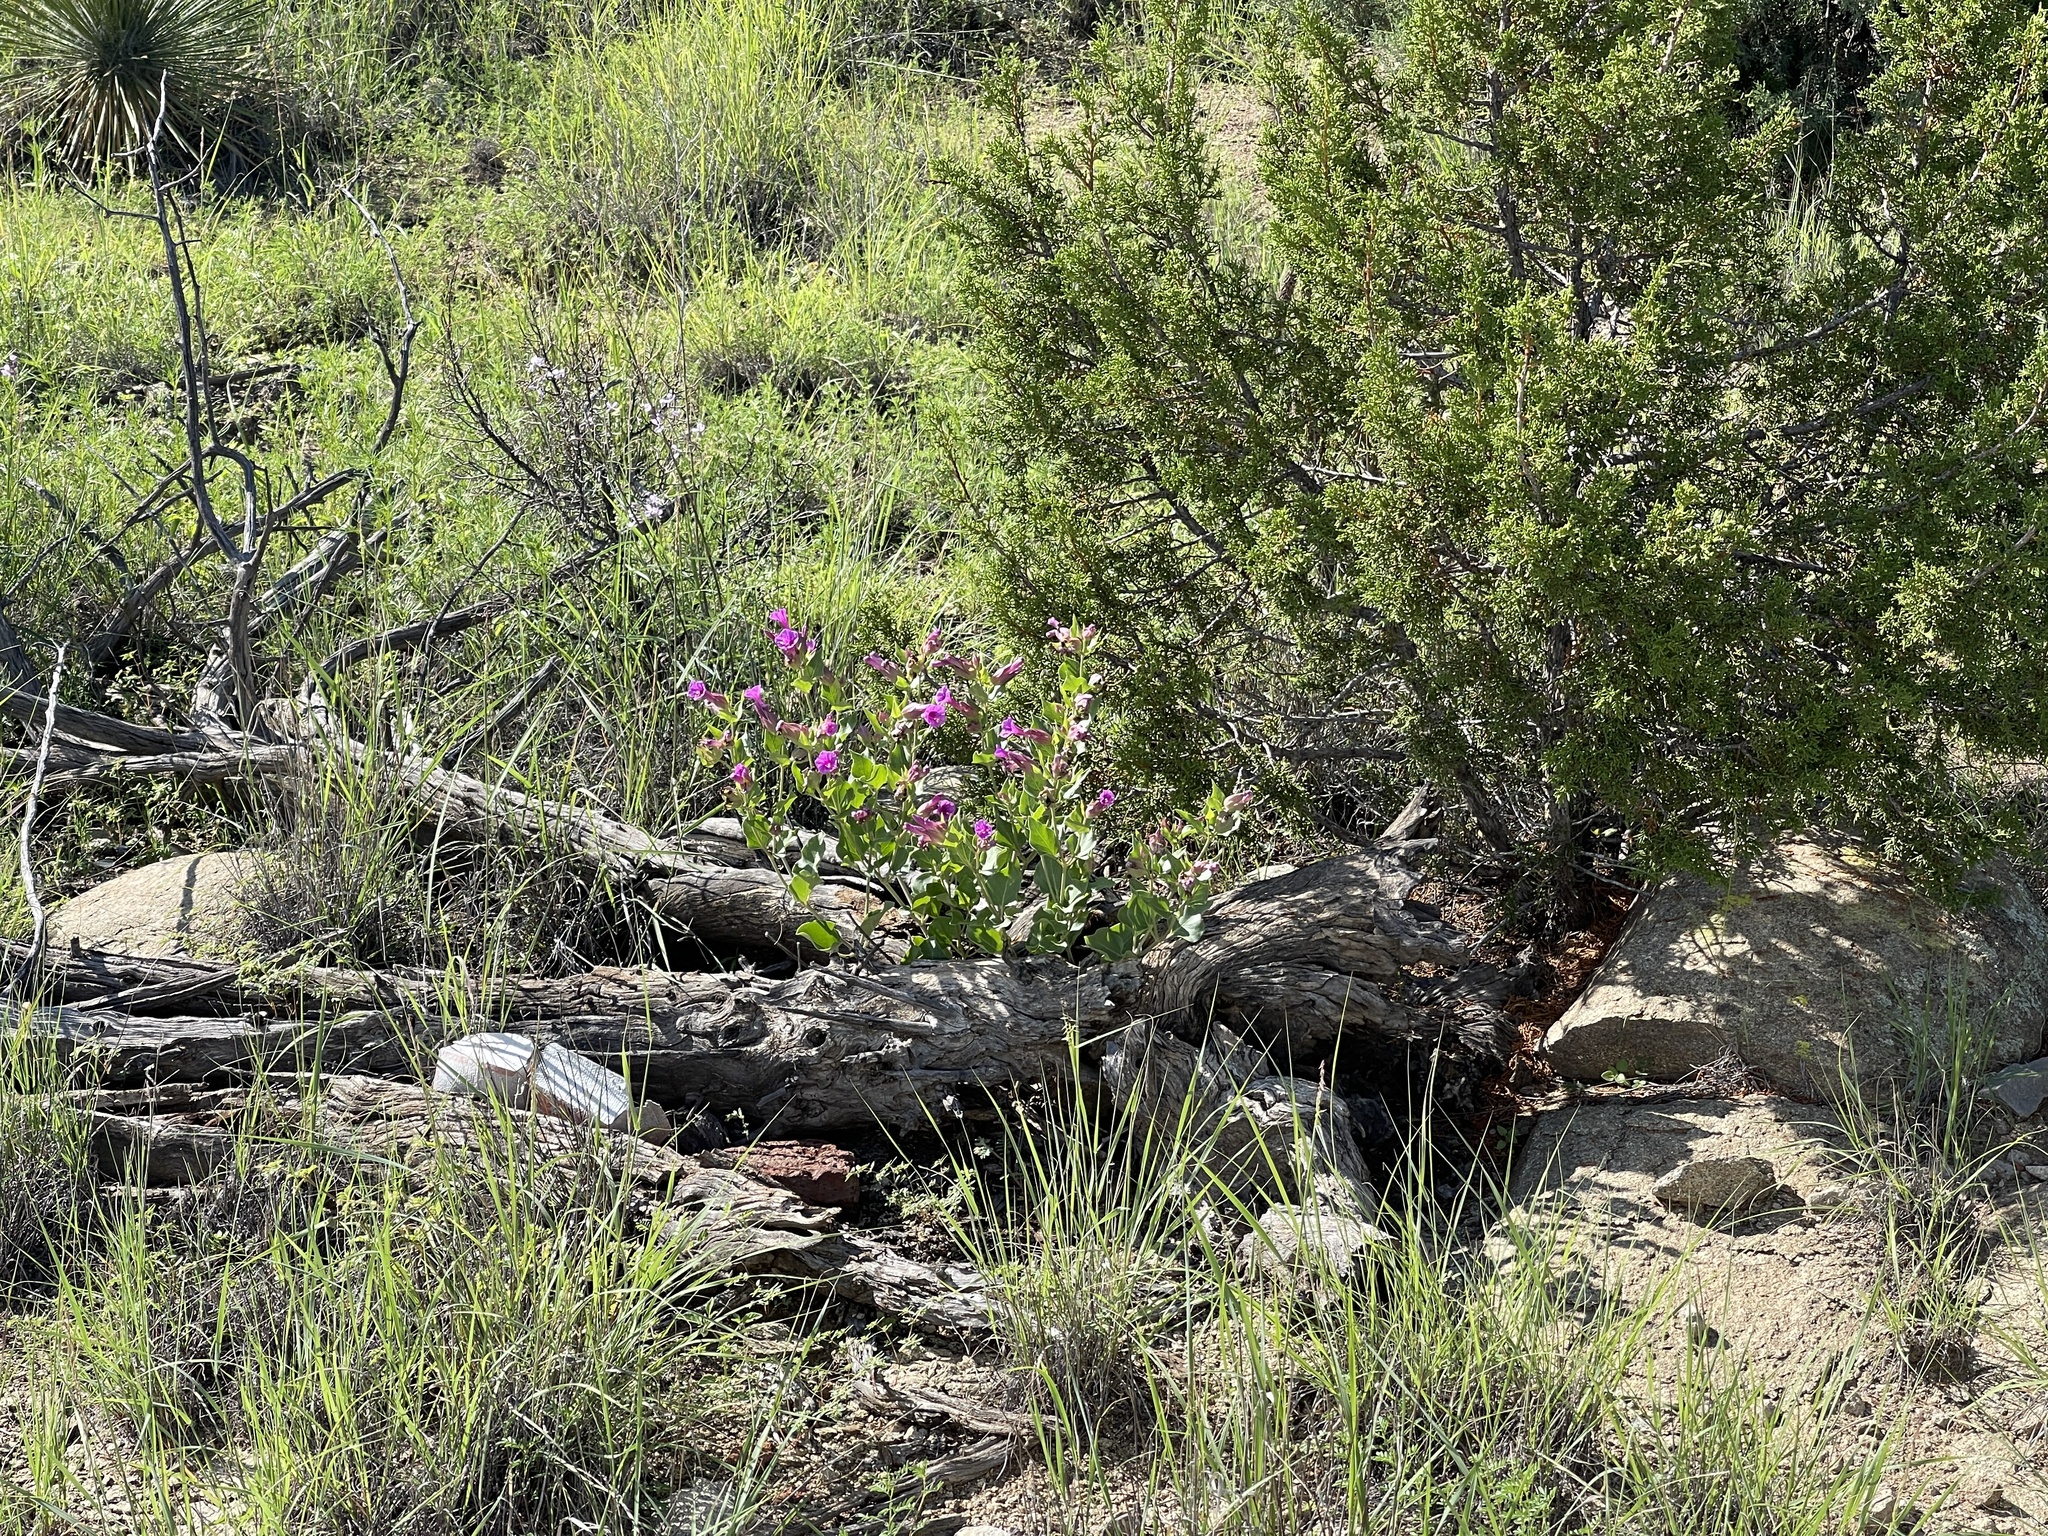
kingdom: Plantae
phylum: Tracheophyta
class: Magnoliopsida
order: Caryophyllales
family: Nyctaginaceae
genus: Mirabilis
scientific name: Mirabilis multiflora
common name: Froebel's four-o'clock
